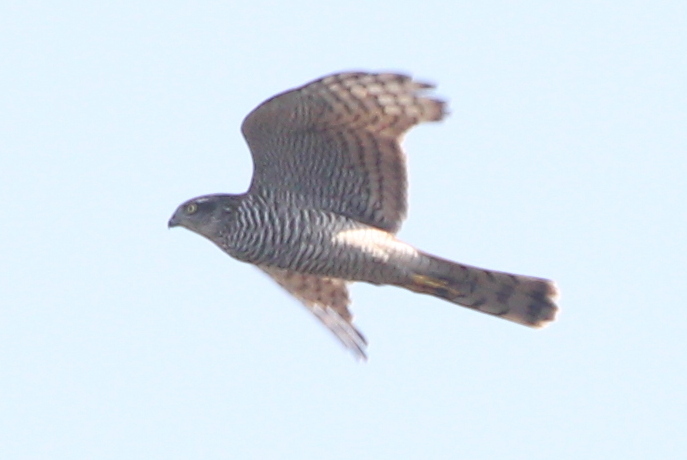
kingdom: Animalia
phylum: Chordata
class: Aves
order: Accipitriformes
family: Accipitridae
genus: Accipiter
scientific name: Accipiter nisus
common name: Eurasian sparrowhawk
